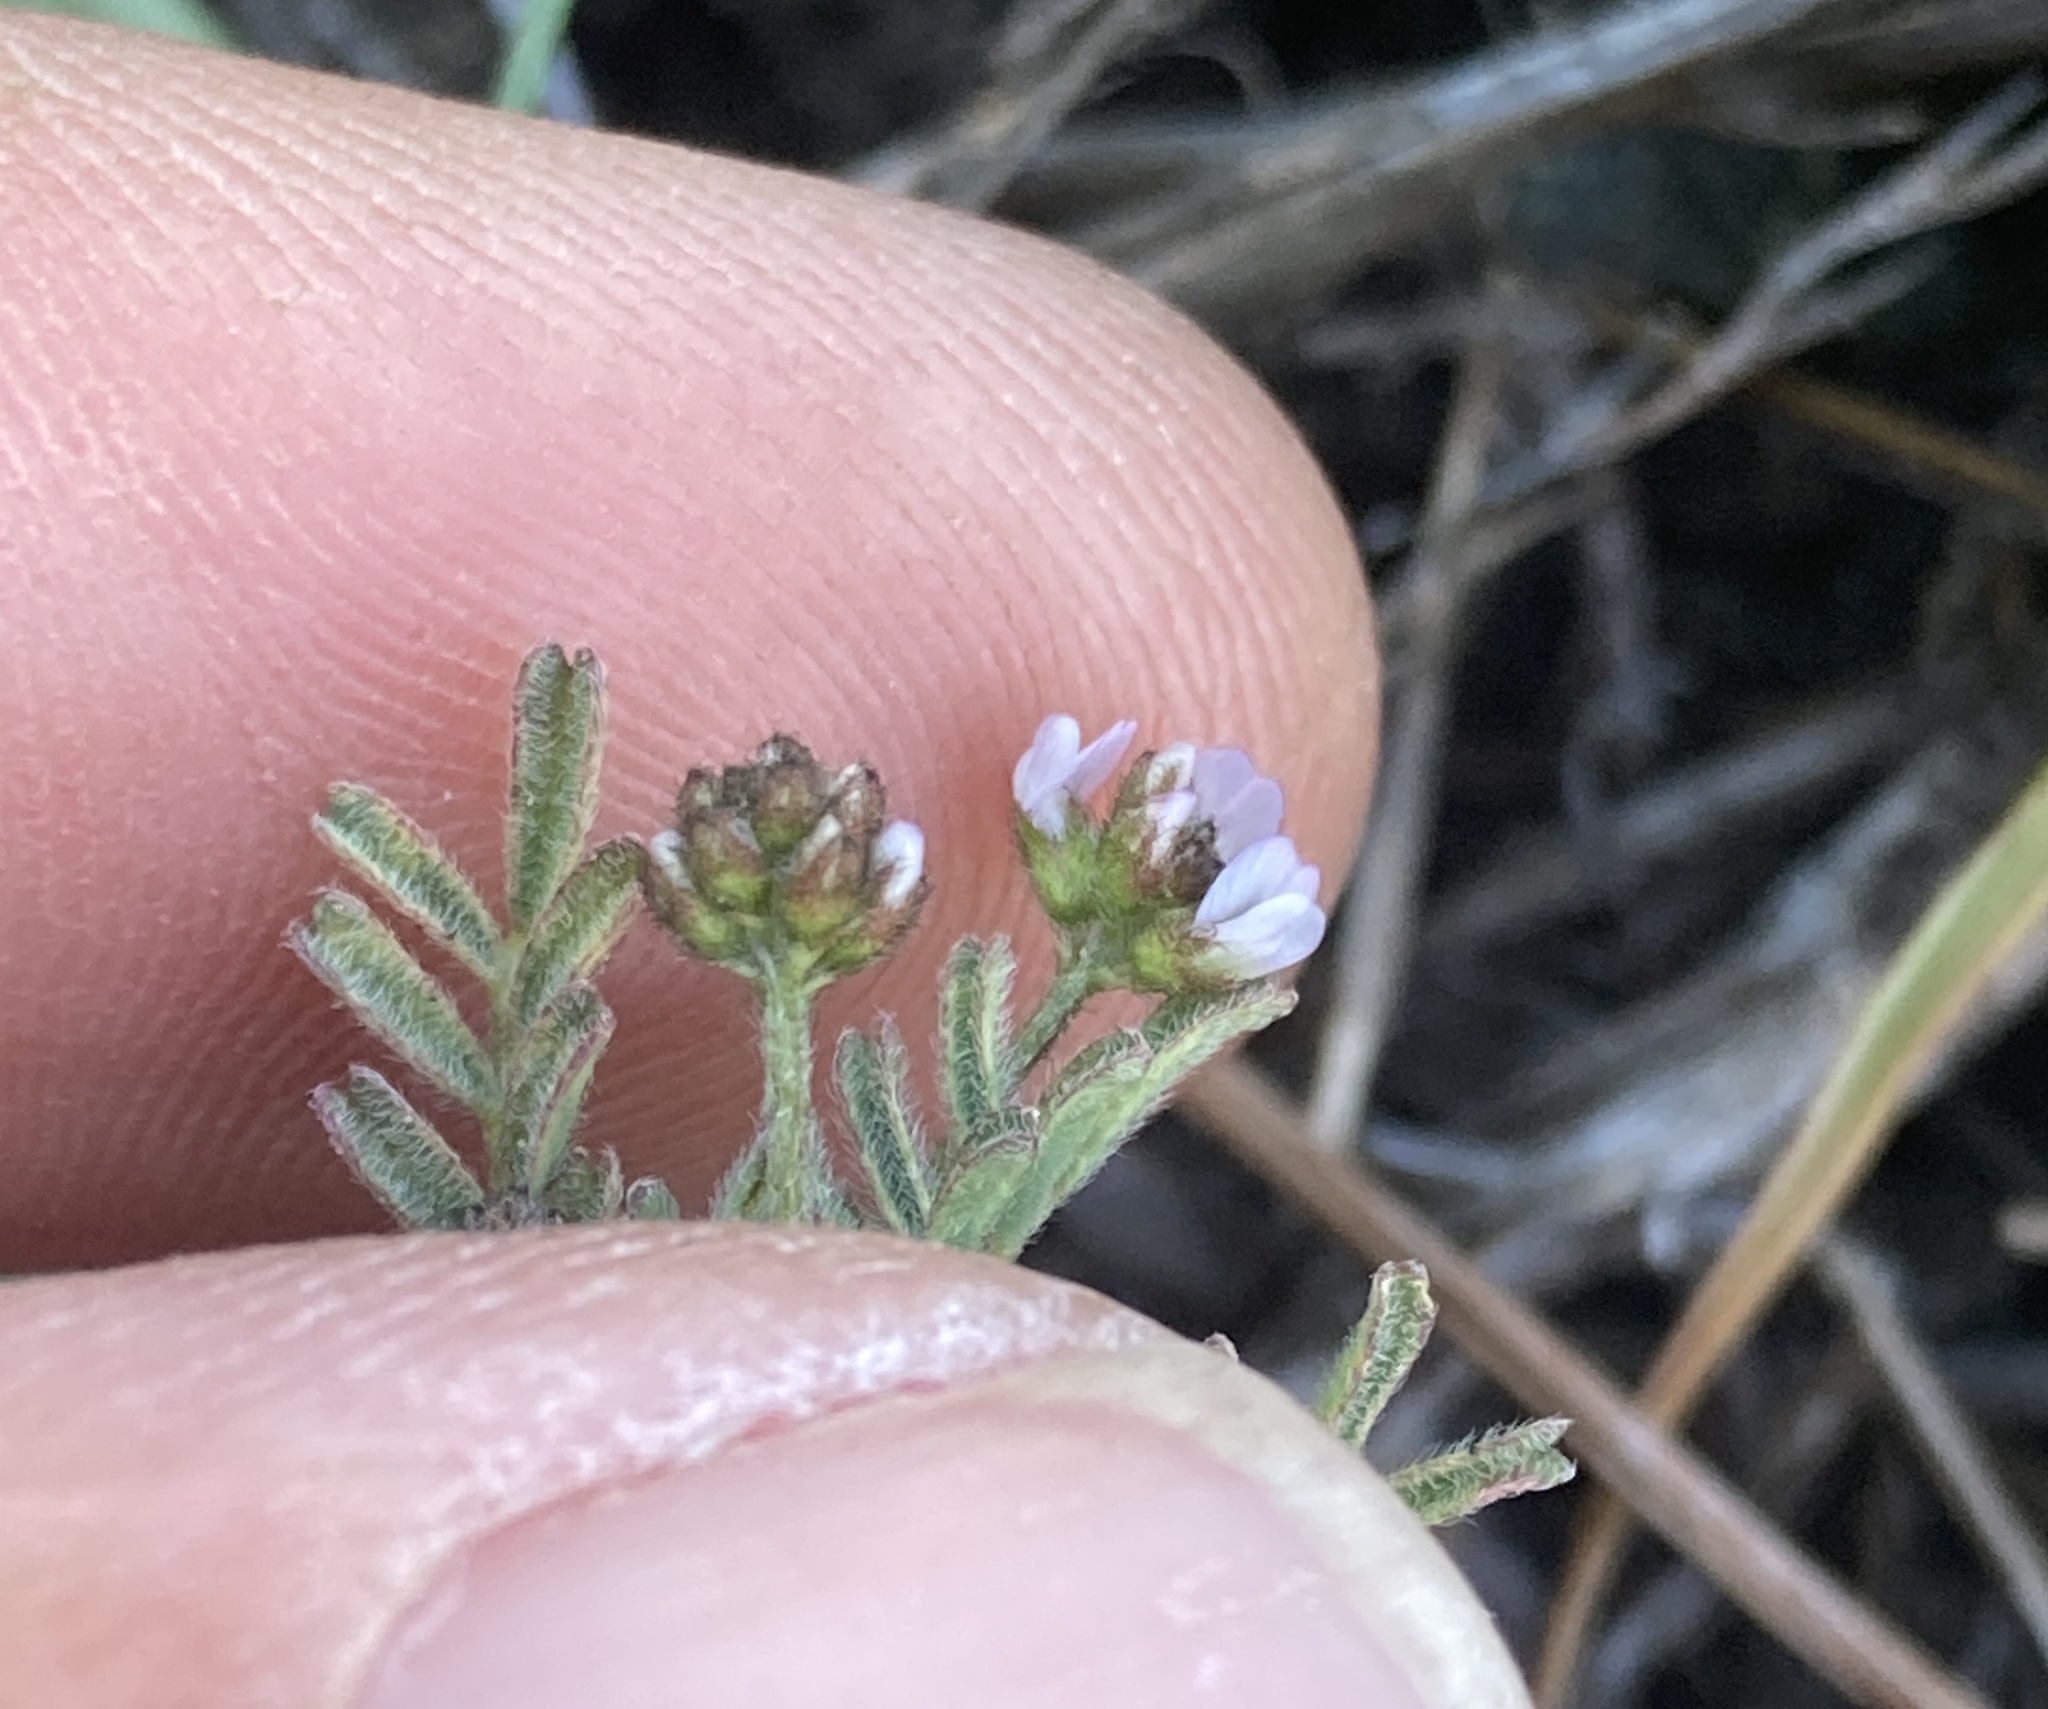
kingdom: Plantae
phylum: Tracheophyta
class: Magnoliopsida
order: Fabales
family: Fabaceae
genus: Astragalus
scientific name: Astragalus gambelianus
